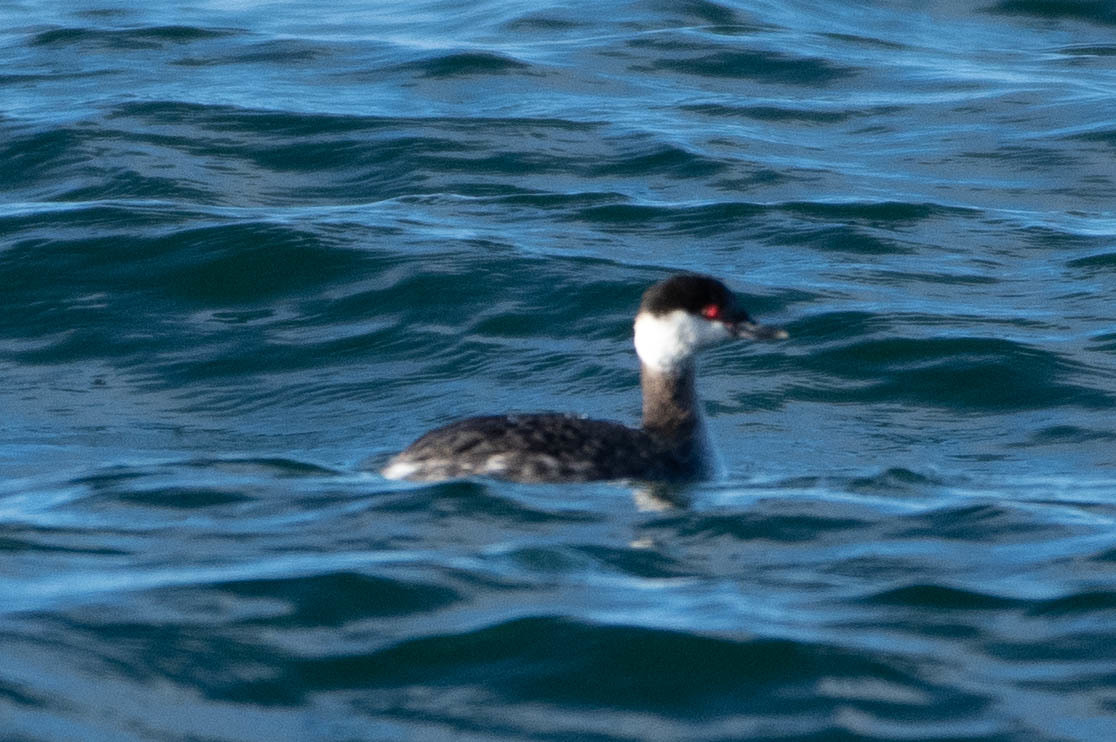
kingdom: Animalia
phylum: Chordata
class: Aves
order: Podicipediformes
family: Podicipedidae
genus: Podiceps
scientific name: Podiceps auritus
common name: Horned grebe
